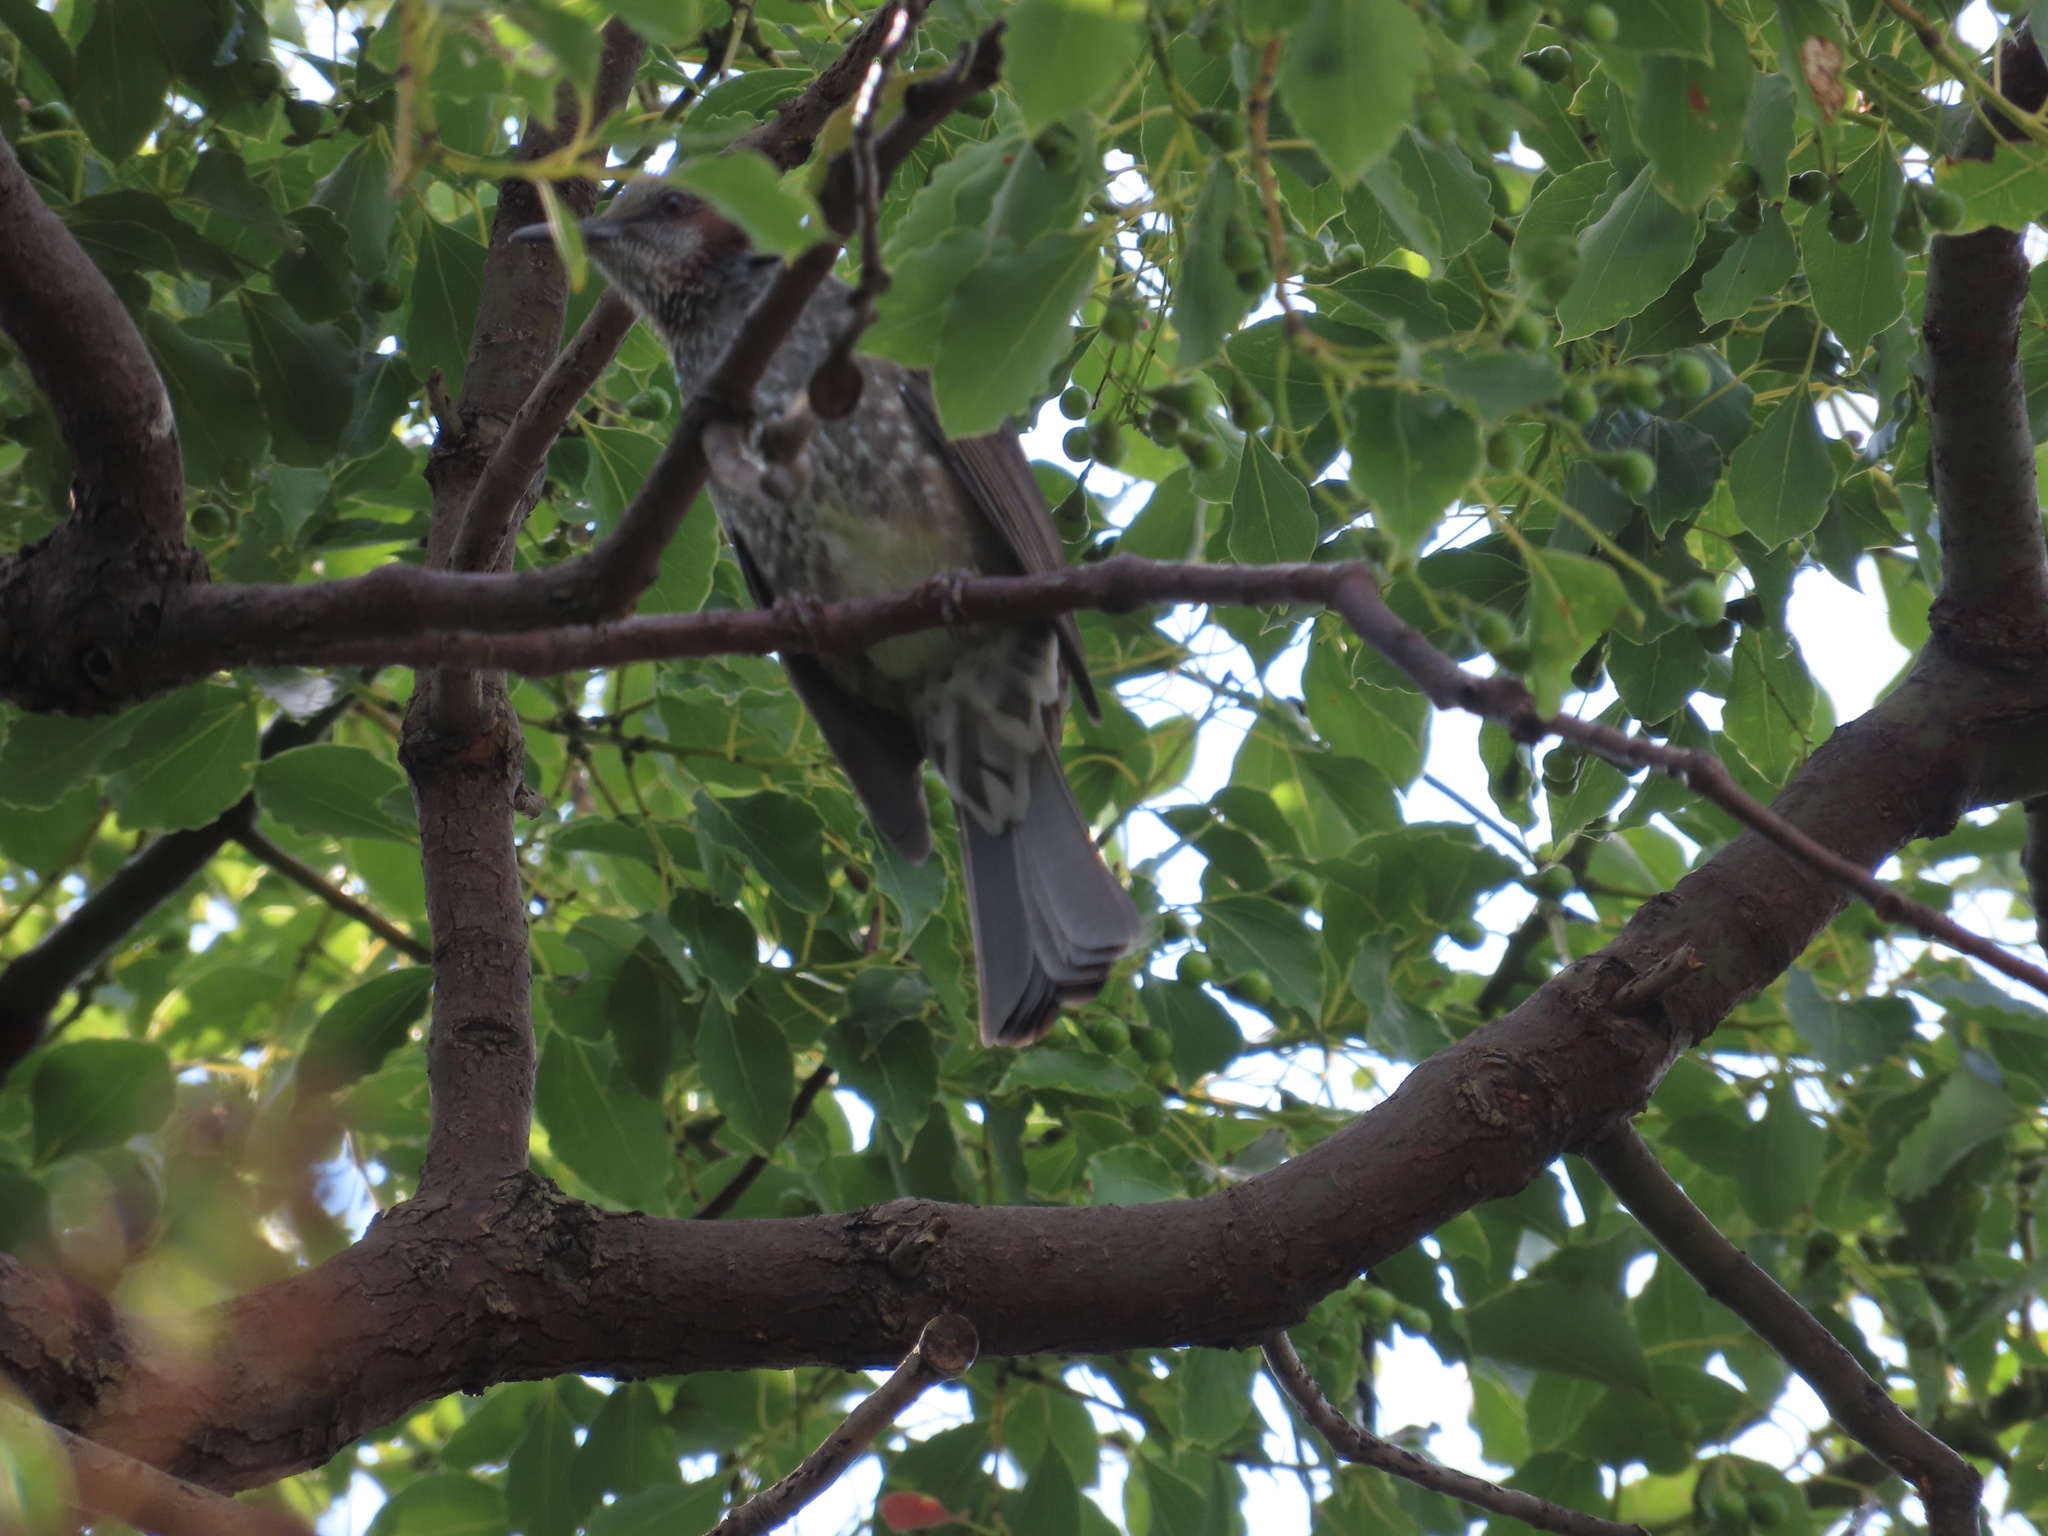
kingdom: Animalia
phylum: Chordata
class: Aves
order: Passeriformes
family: Pycnonotidae
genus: Hypsipetes
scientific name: Hypsipetes amaurotis
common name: Brown-eared bulbul
